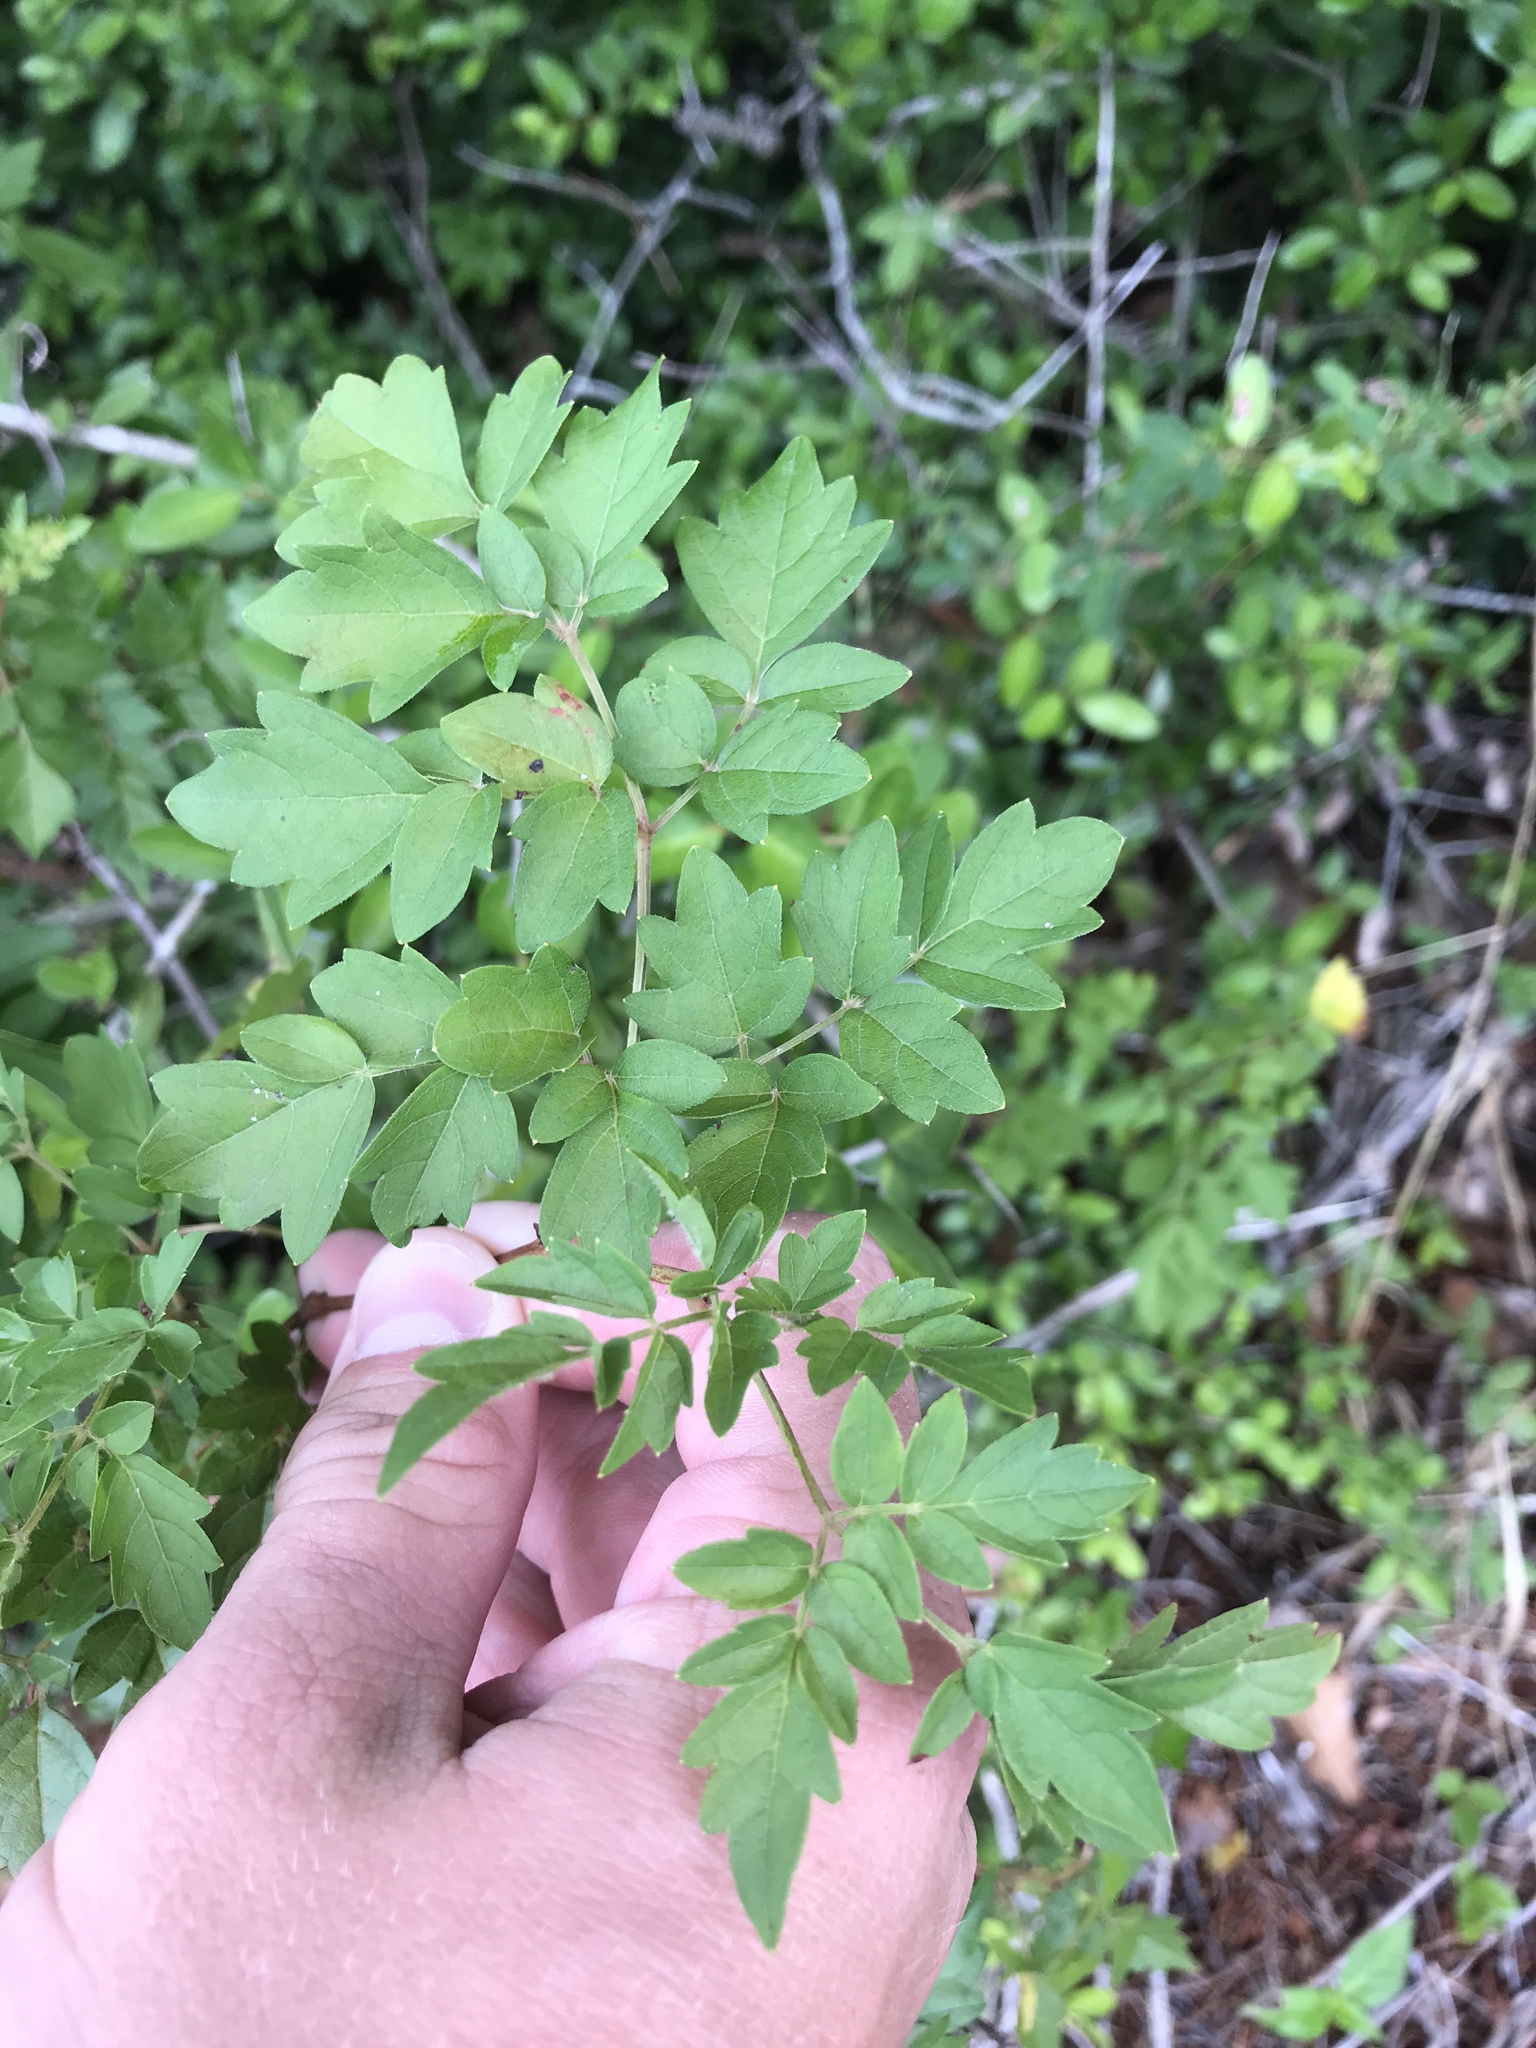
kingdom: Plantae
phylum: Tracheophyta
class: Magnoliopsida
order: Vitales
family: Vitaceae
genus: Nekemias
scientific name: Nekemias arborea
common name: Peppervine
